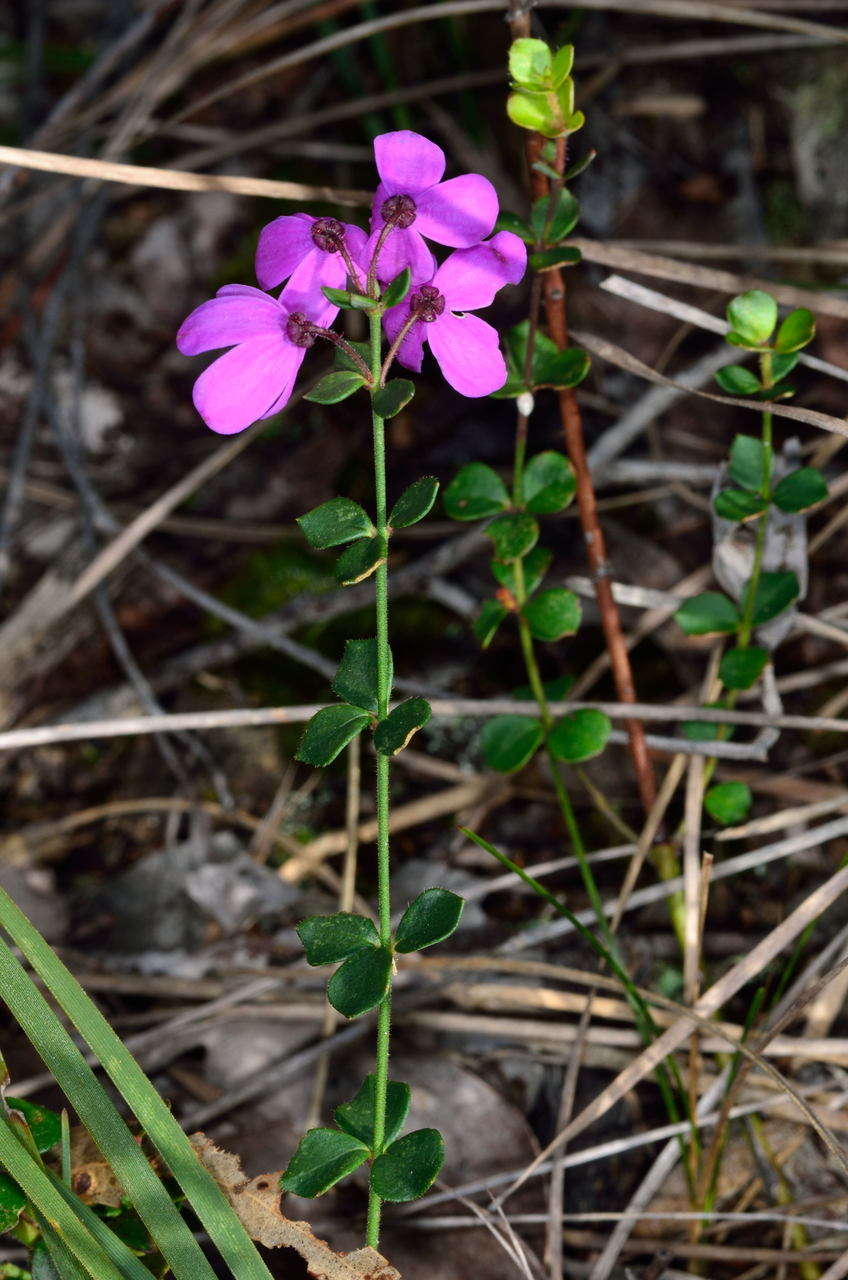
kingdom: Plantae
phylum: Tracheophyta
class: Magnoliopsida
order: Oxalidales
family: Elaeocarpaceae
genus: Tetratheca
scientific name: Tetratheca ciliata
